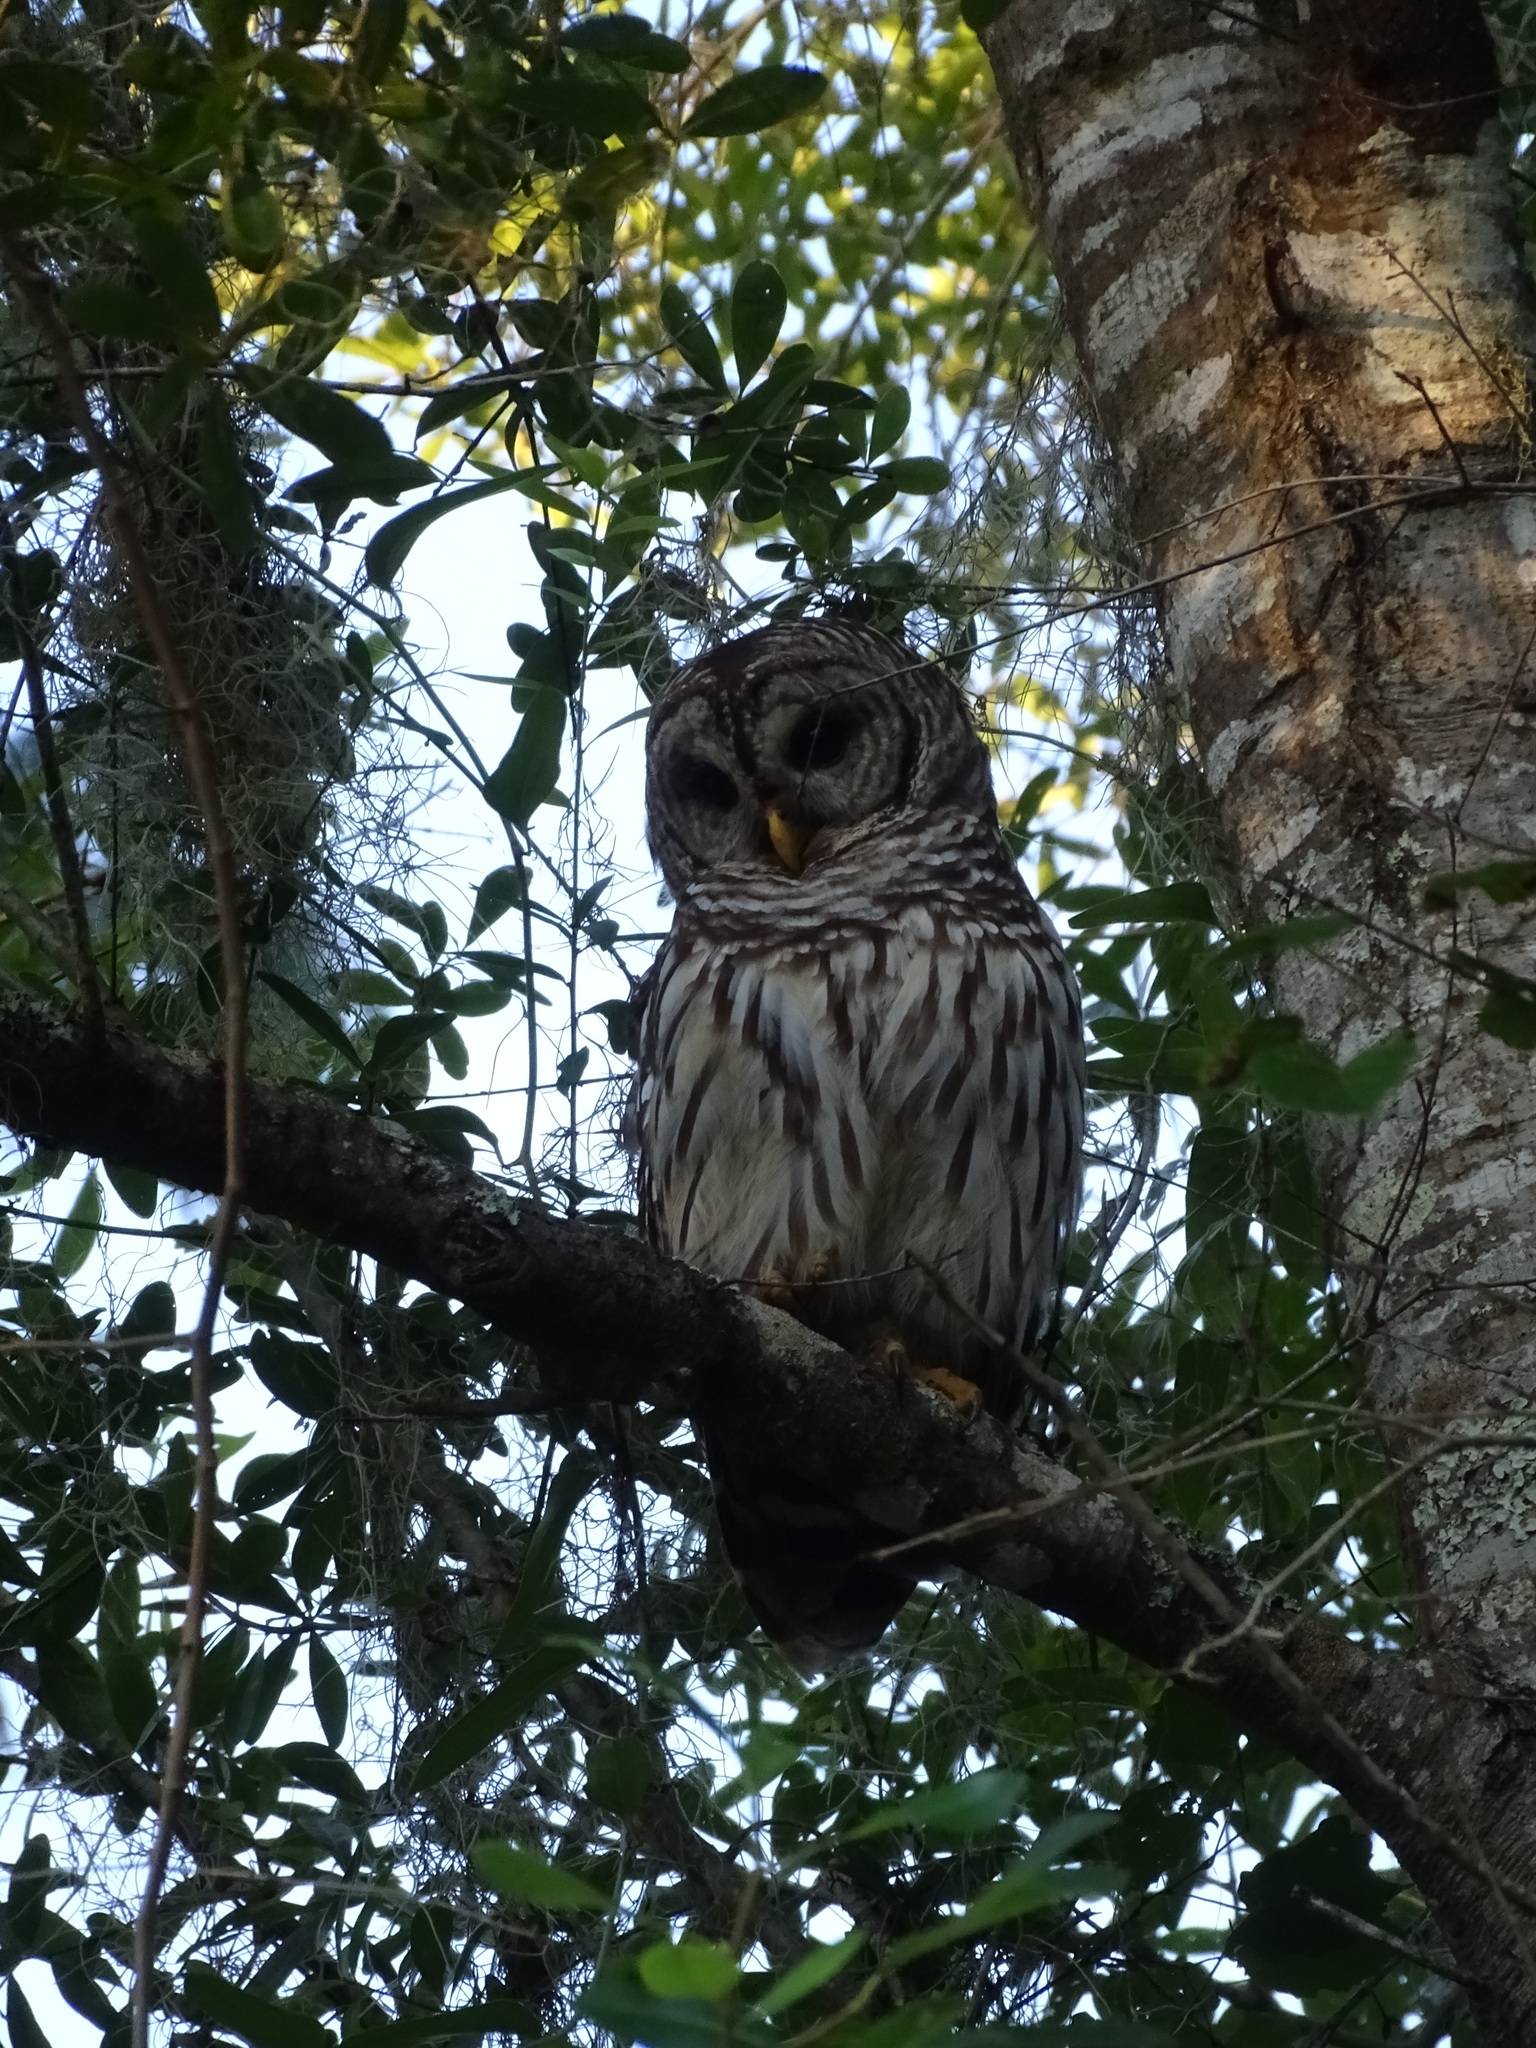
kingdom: Animalia
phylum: Chordata
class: Aves
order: Strigiformes
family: Strigidae
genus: Strix
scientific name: Strix varia
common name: Barred owl
